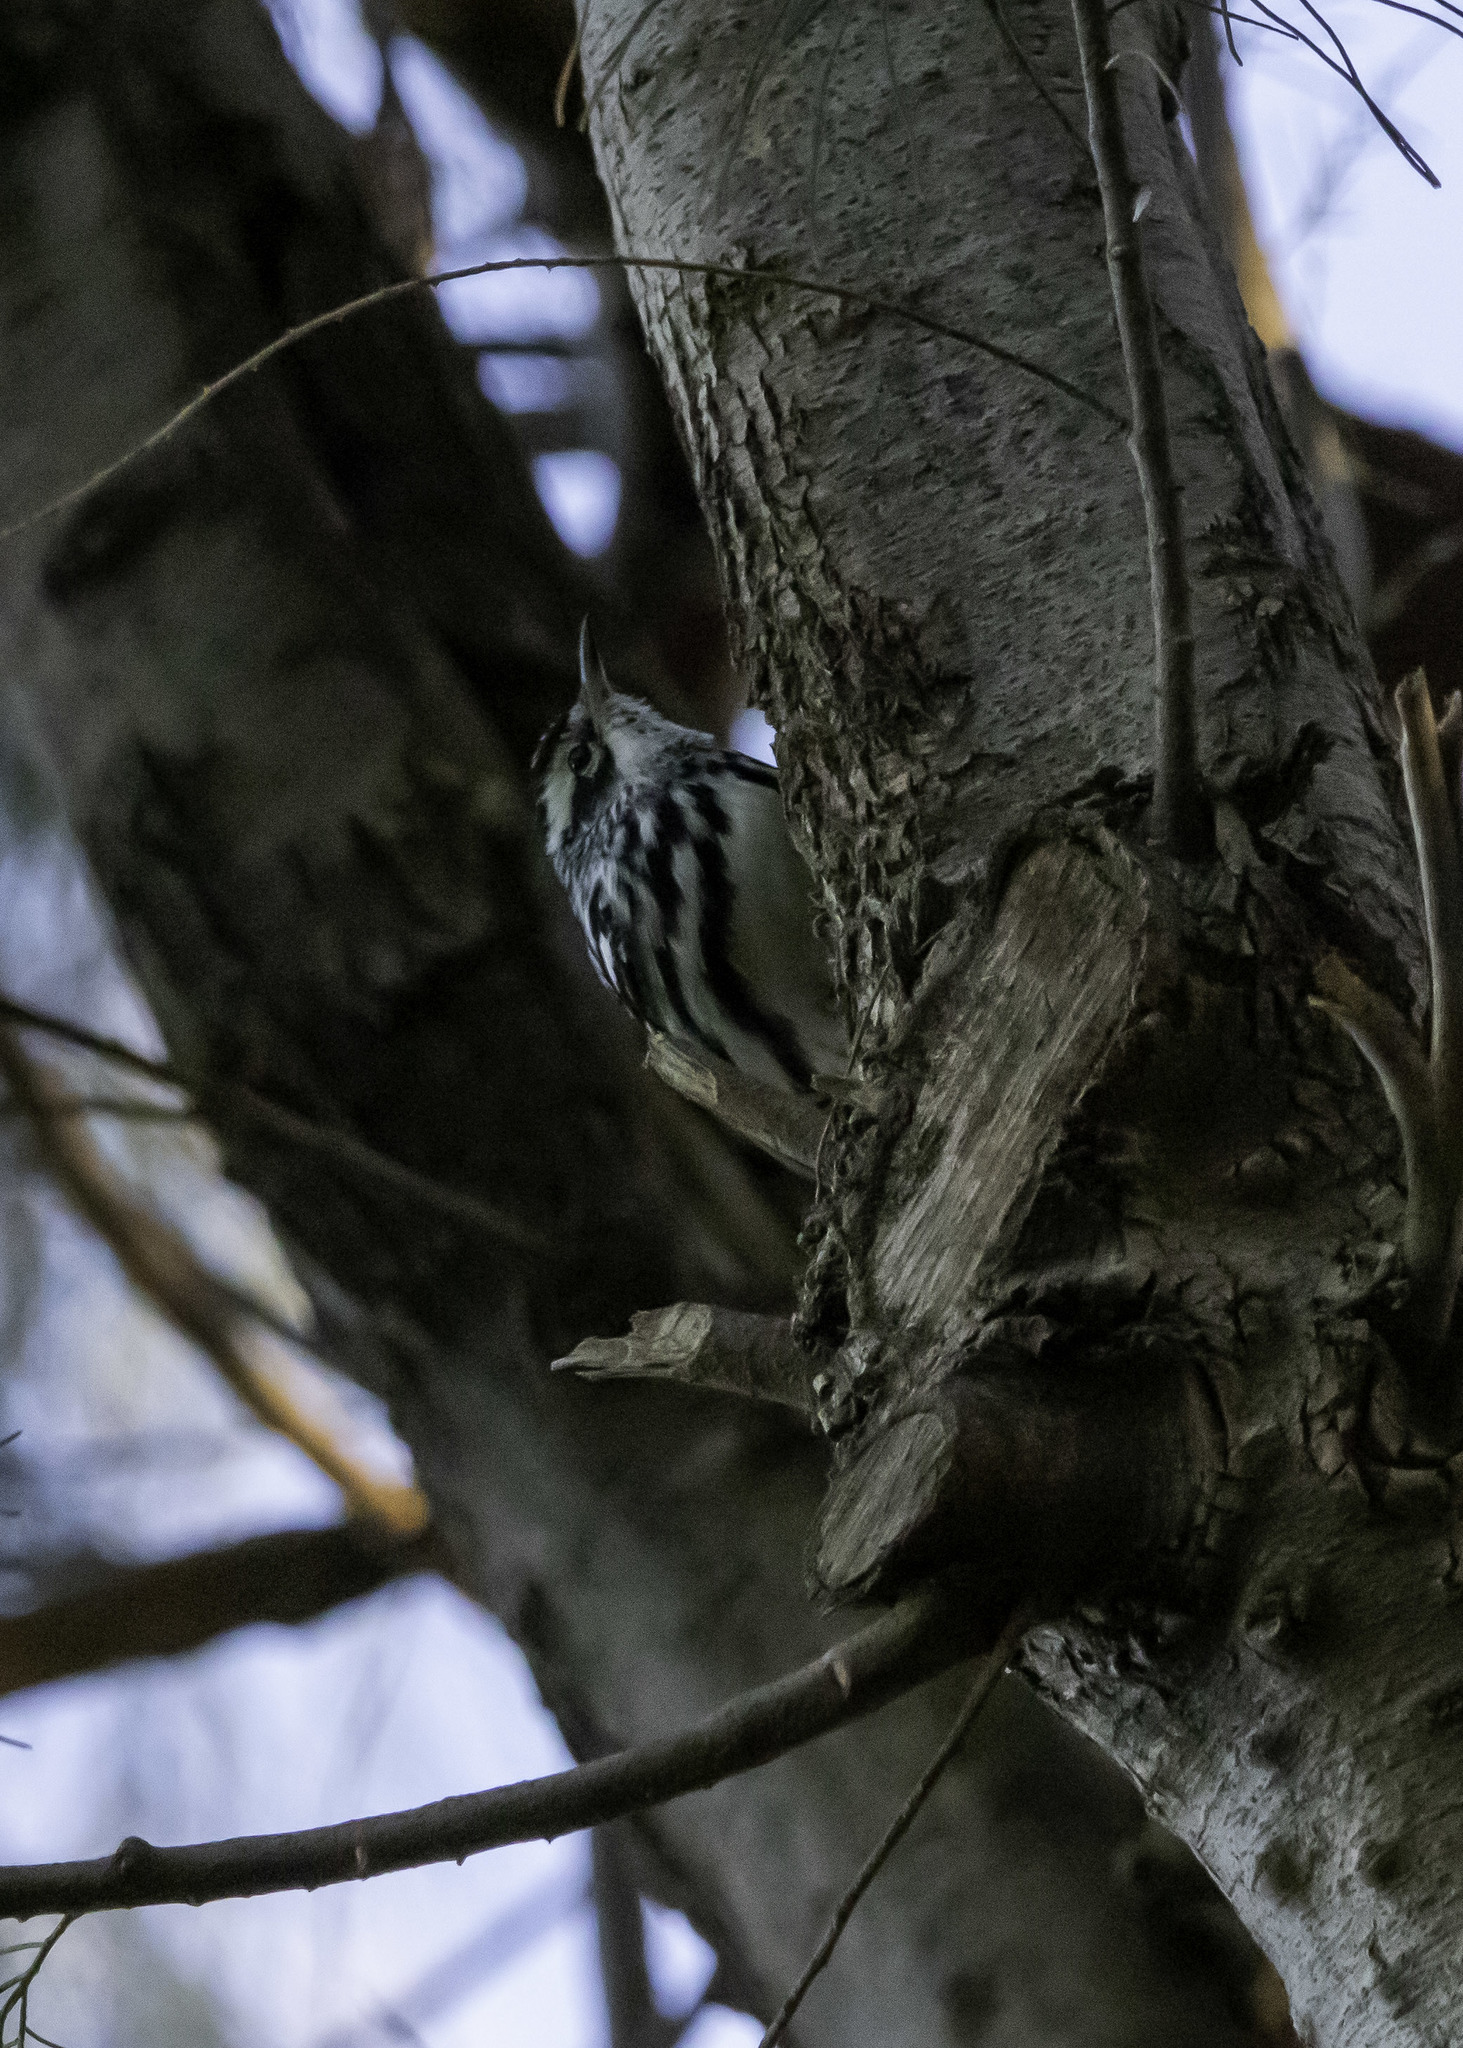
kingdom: Animalia
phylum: Chordata
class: Aves
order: Passeriformes
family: Parulidae
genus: Mniotilta
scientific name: Mniotilta varia
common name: Black-and-white warbler
